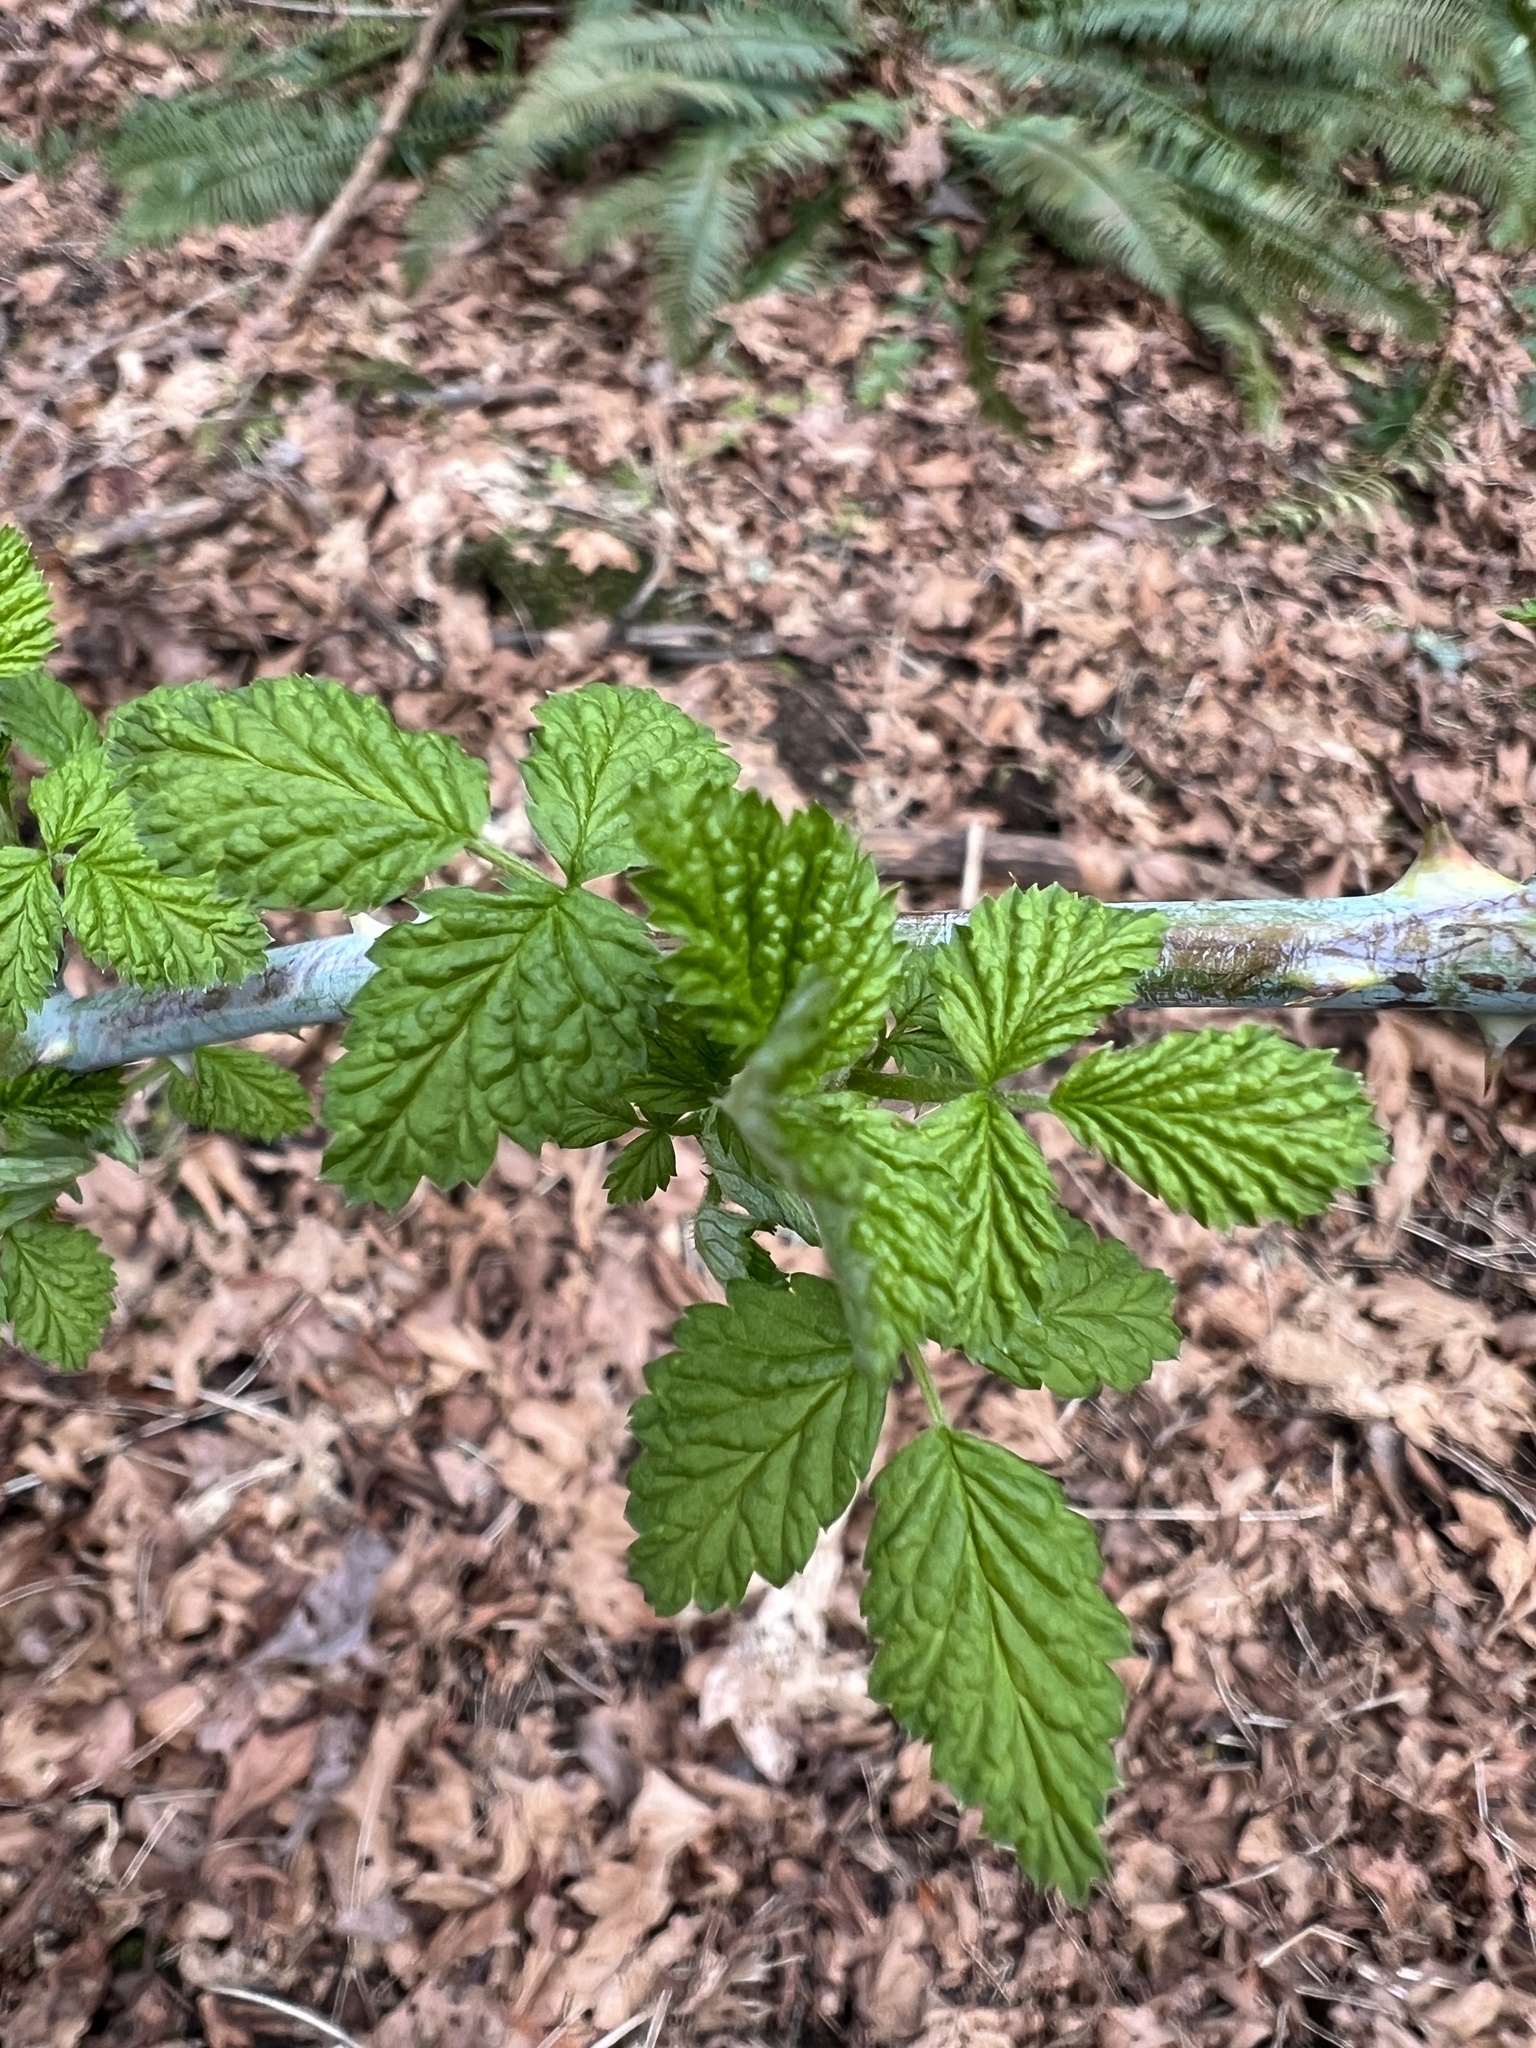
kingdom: Plantae
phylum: Tracheophyta
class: Magnoliopsida
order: Rosales
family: Rosaceae
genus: Rubus
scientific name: Rubus leucodermis
